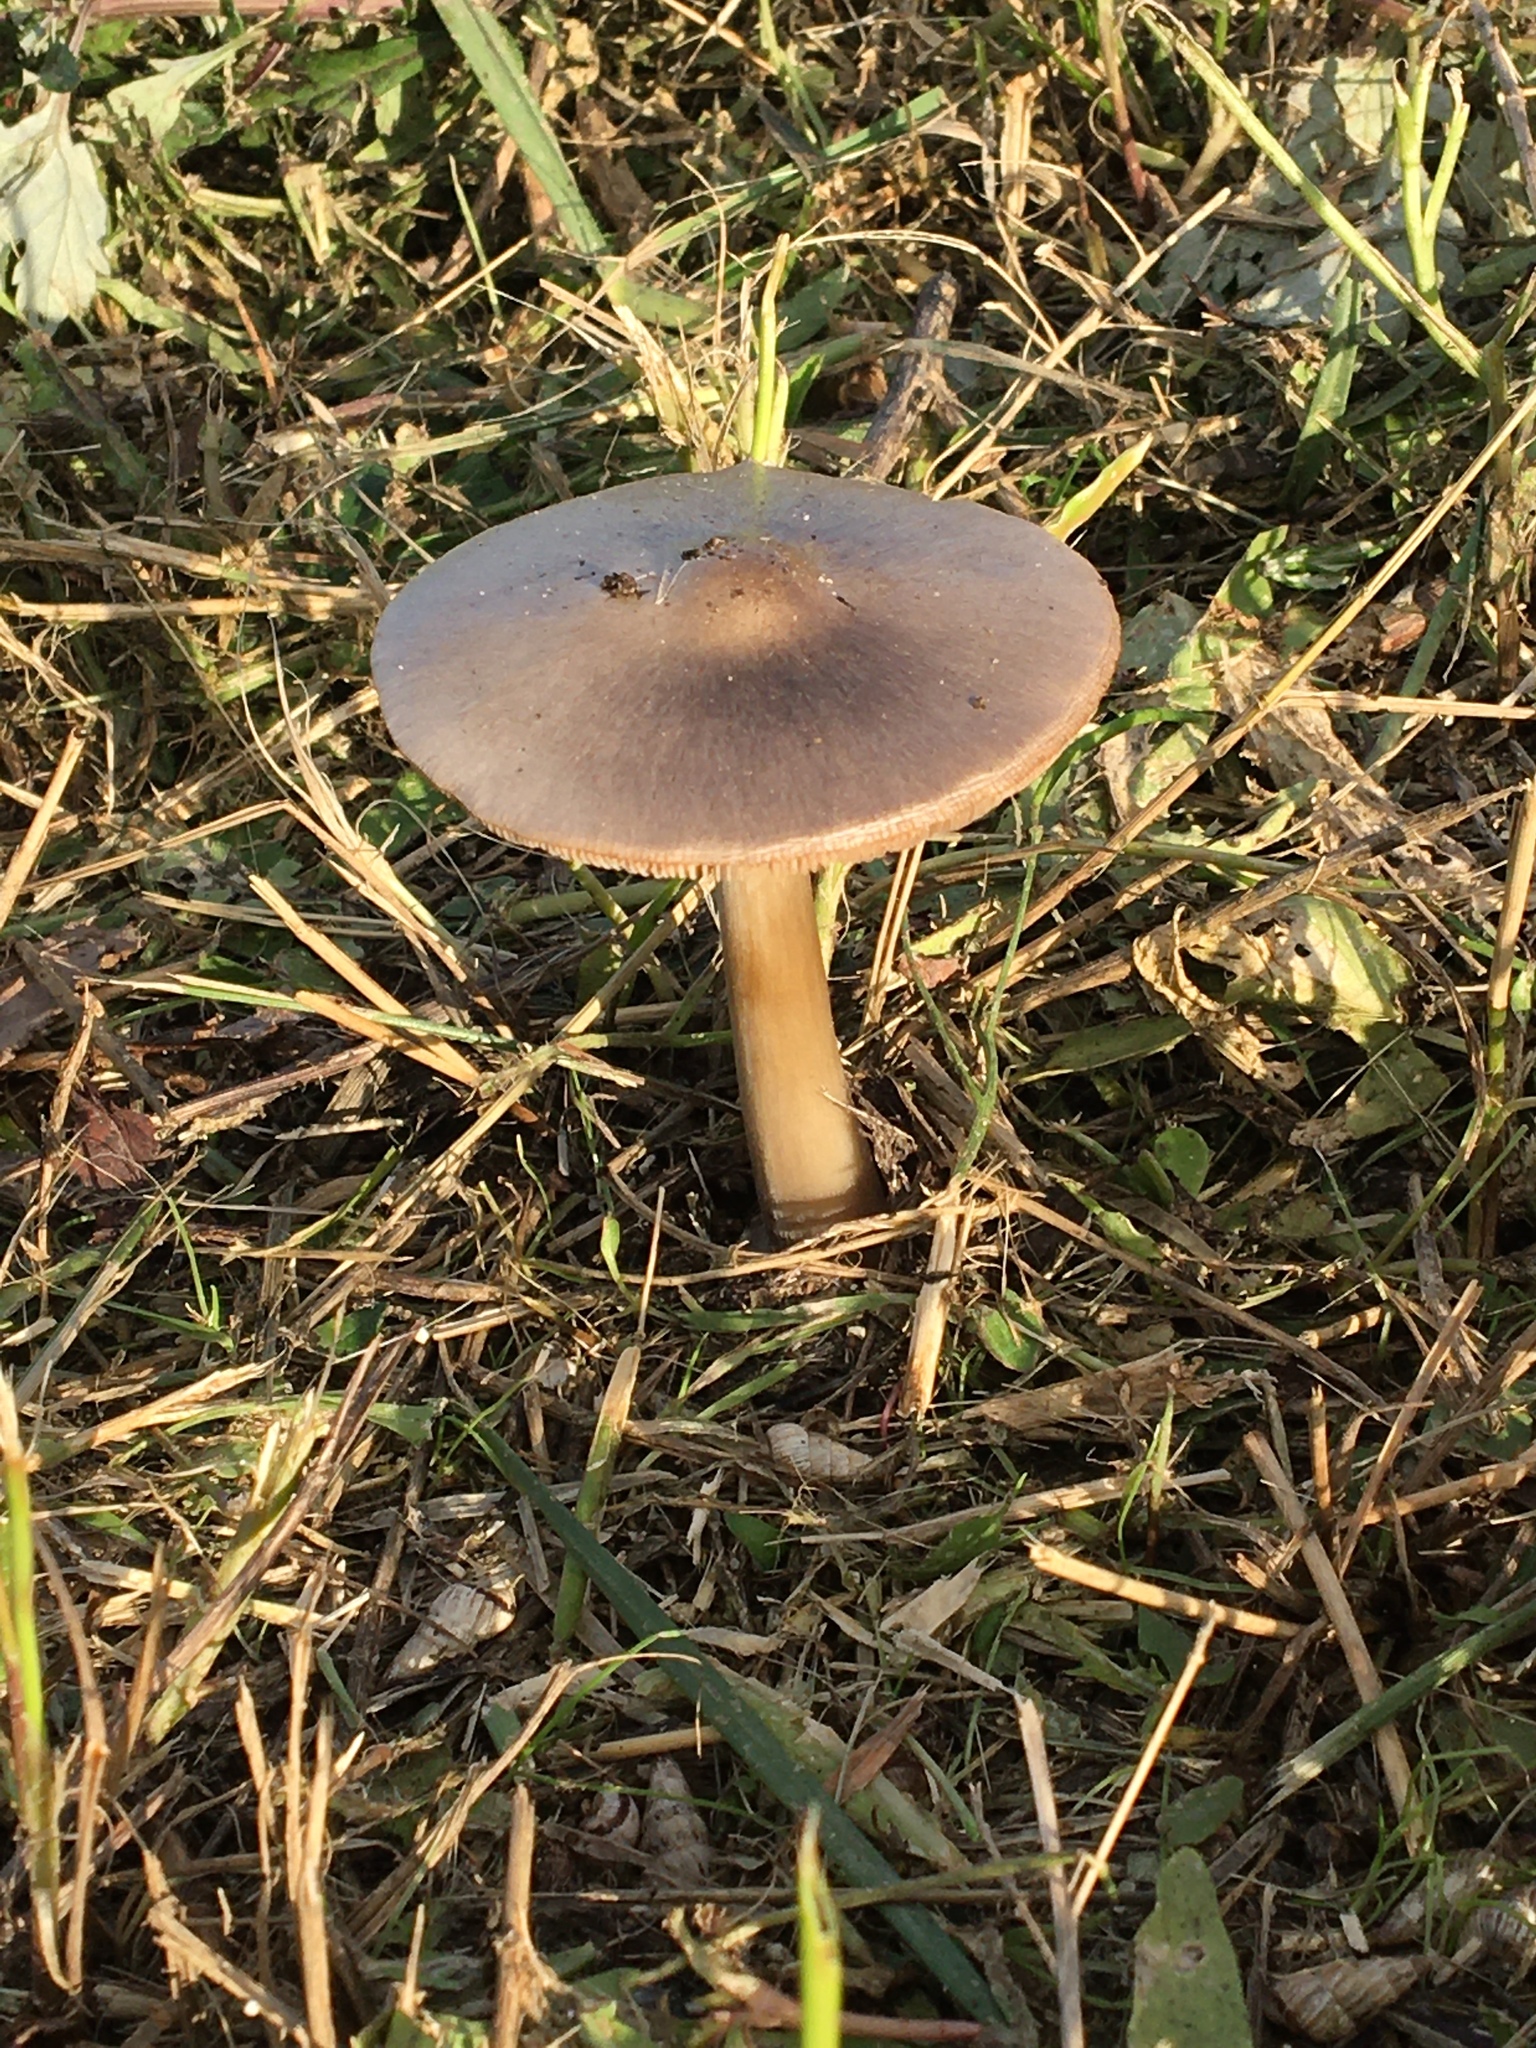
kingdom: Fungi
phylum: Basidiomycota
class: Agaricomycetes
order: Agaricales
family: Pluteaceae
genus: Volvopluteus
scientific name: Volvopluteus gloiocephalus
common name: Stubble rosegill
